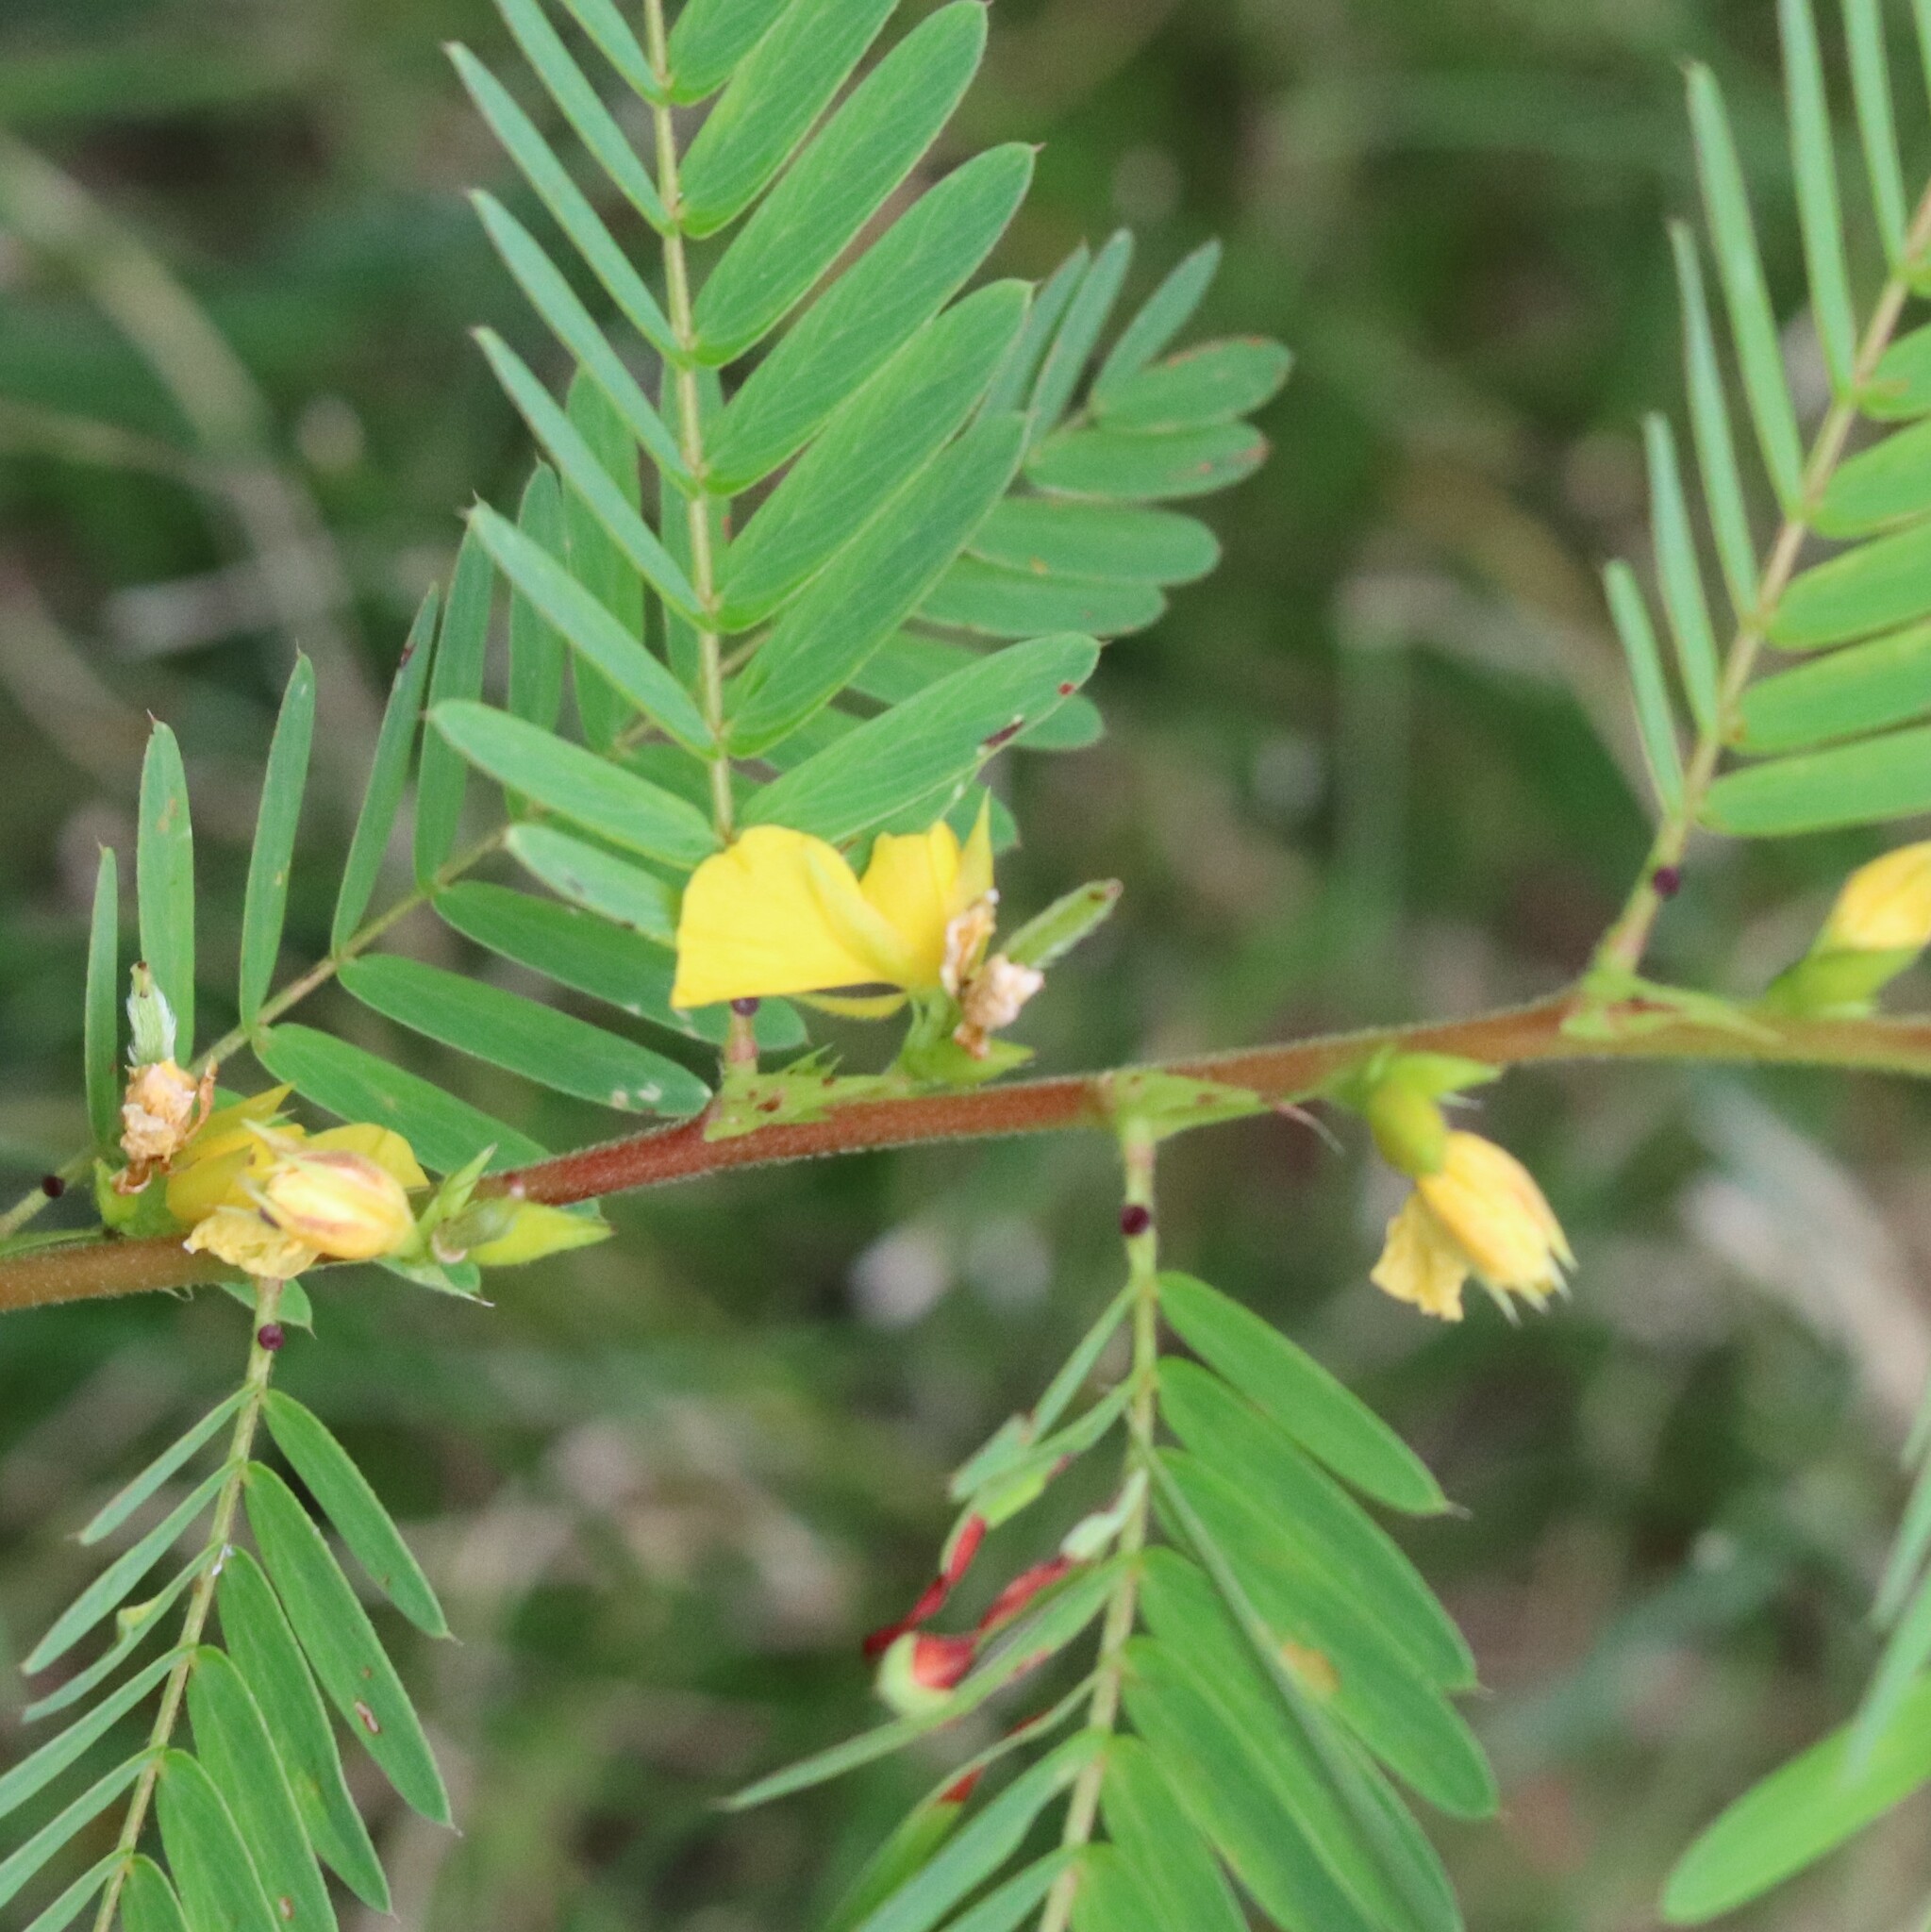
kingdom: Plantae
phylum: Tracheophyta
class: Magnoliopsida
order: Fabales
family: Fabaceae
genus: Chamaecrista
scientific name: Chamaecrista nictitans
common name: Sensitive cassia
